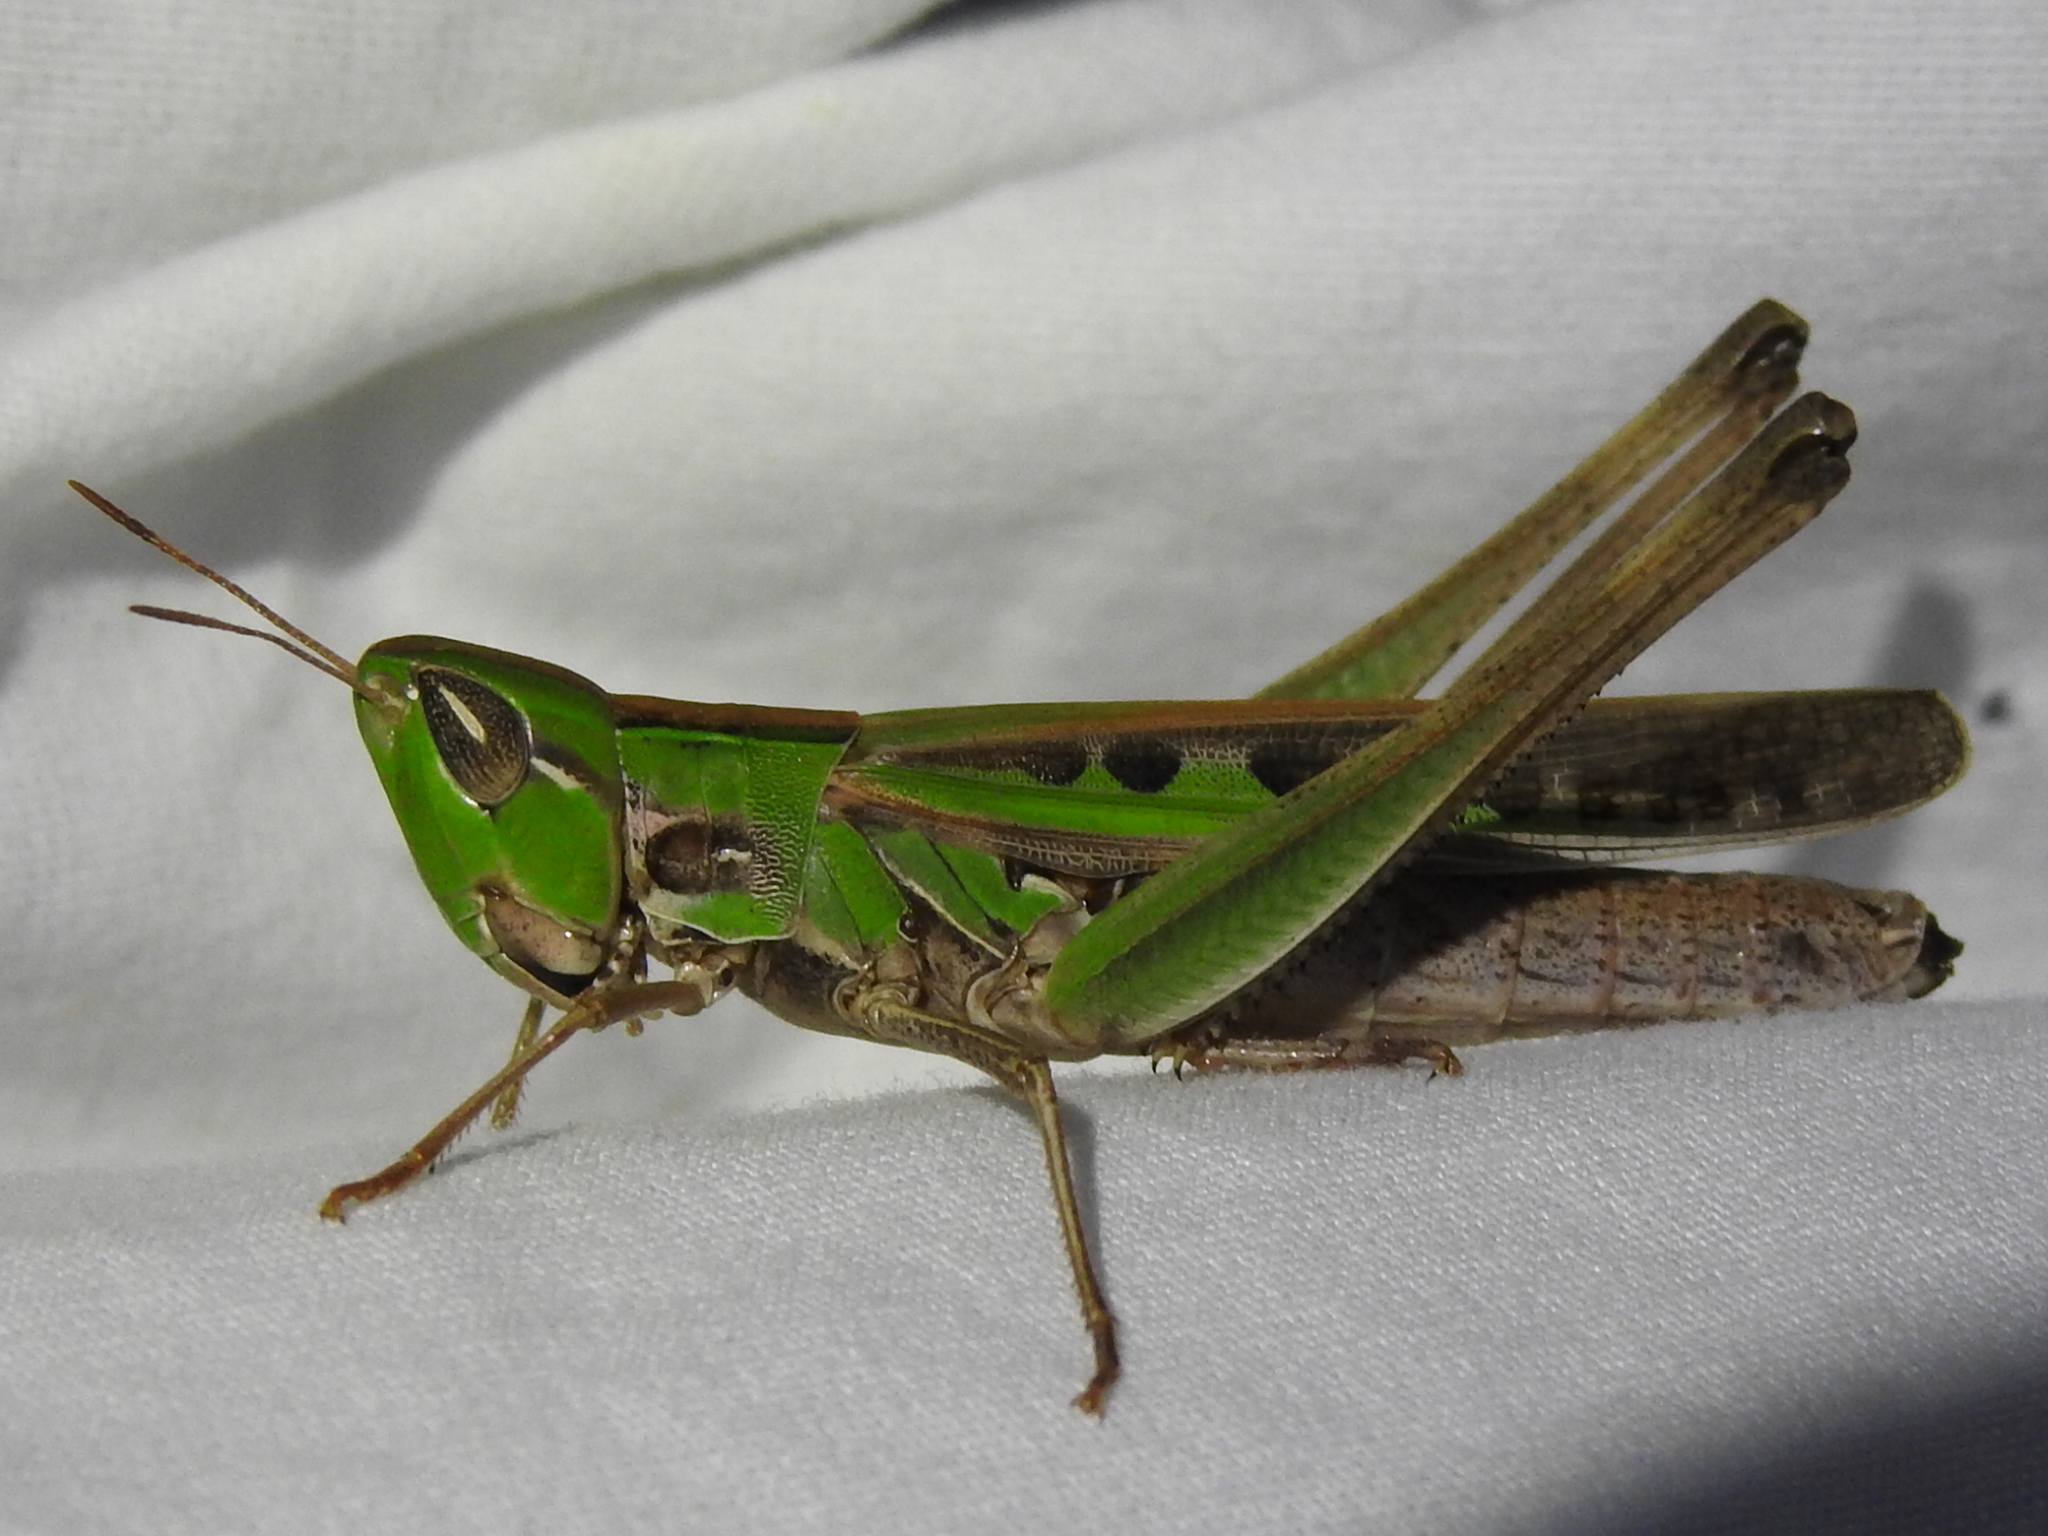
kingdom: Animalia
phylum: Arthropoda
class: Insecta
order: Orthoptera
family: Acrididae
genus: Syrbula
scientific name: Syrbula admirabilis
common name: Handsome grasshopper
